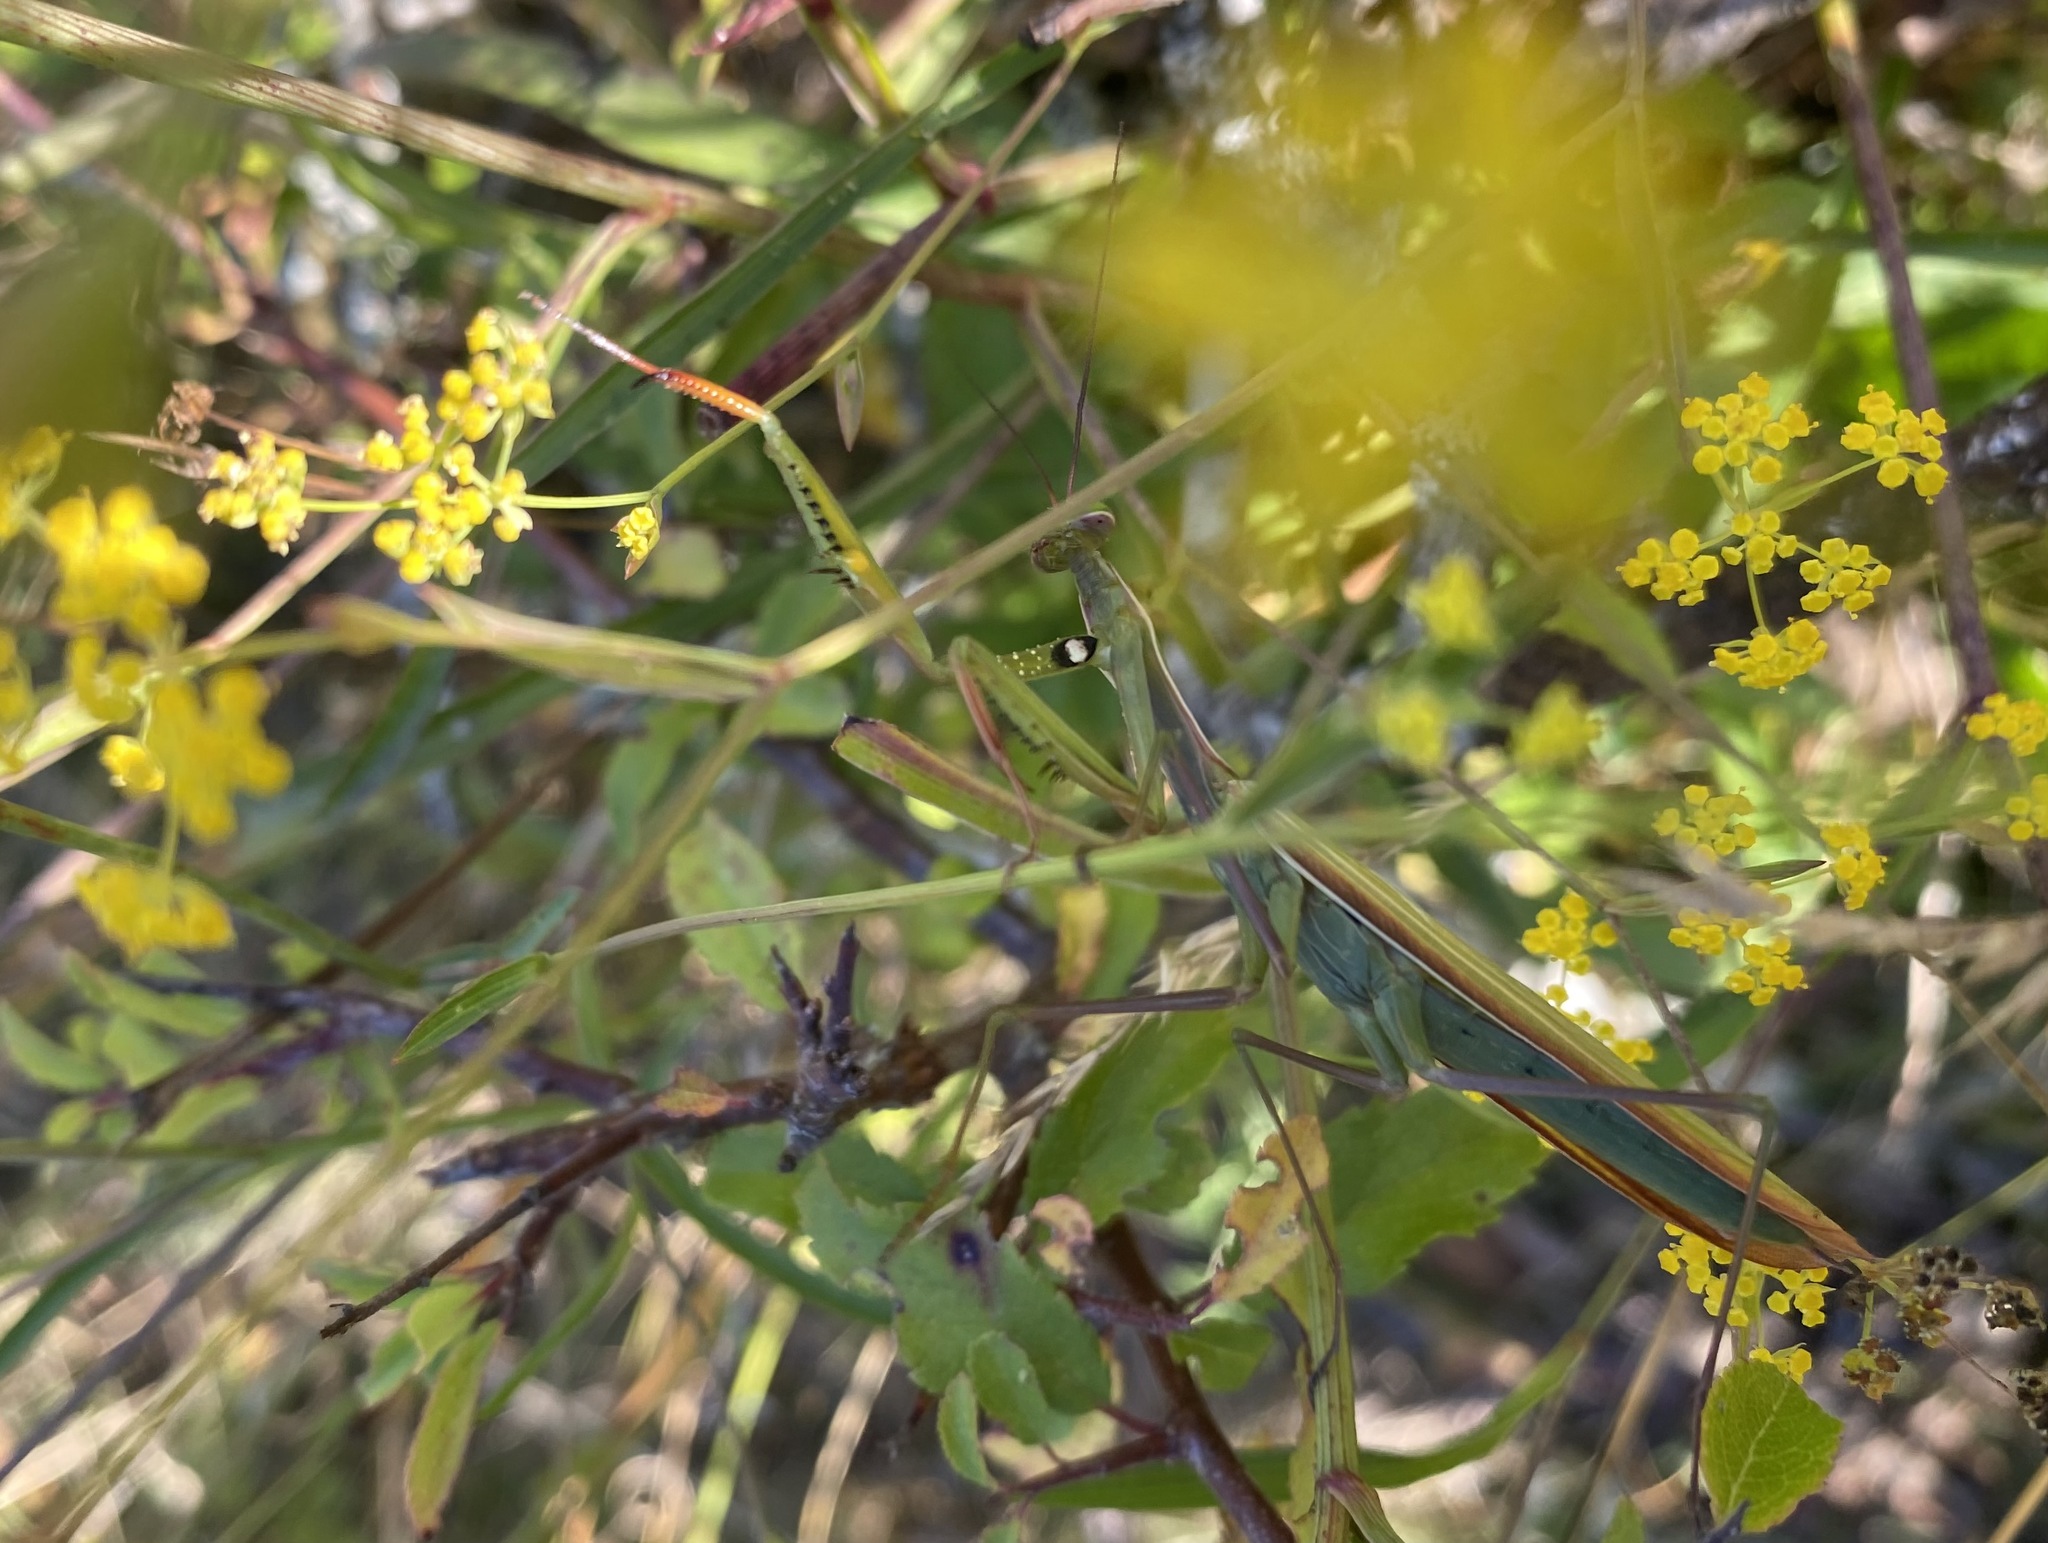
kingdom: Animalia
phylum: Arthropoda
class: Insecta
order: Mantodea
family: Mantidae
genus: Mantis
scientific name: Mantis religiosa
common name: Praying mantis
